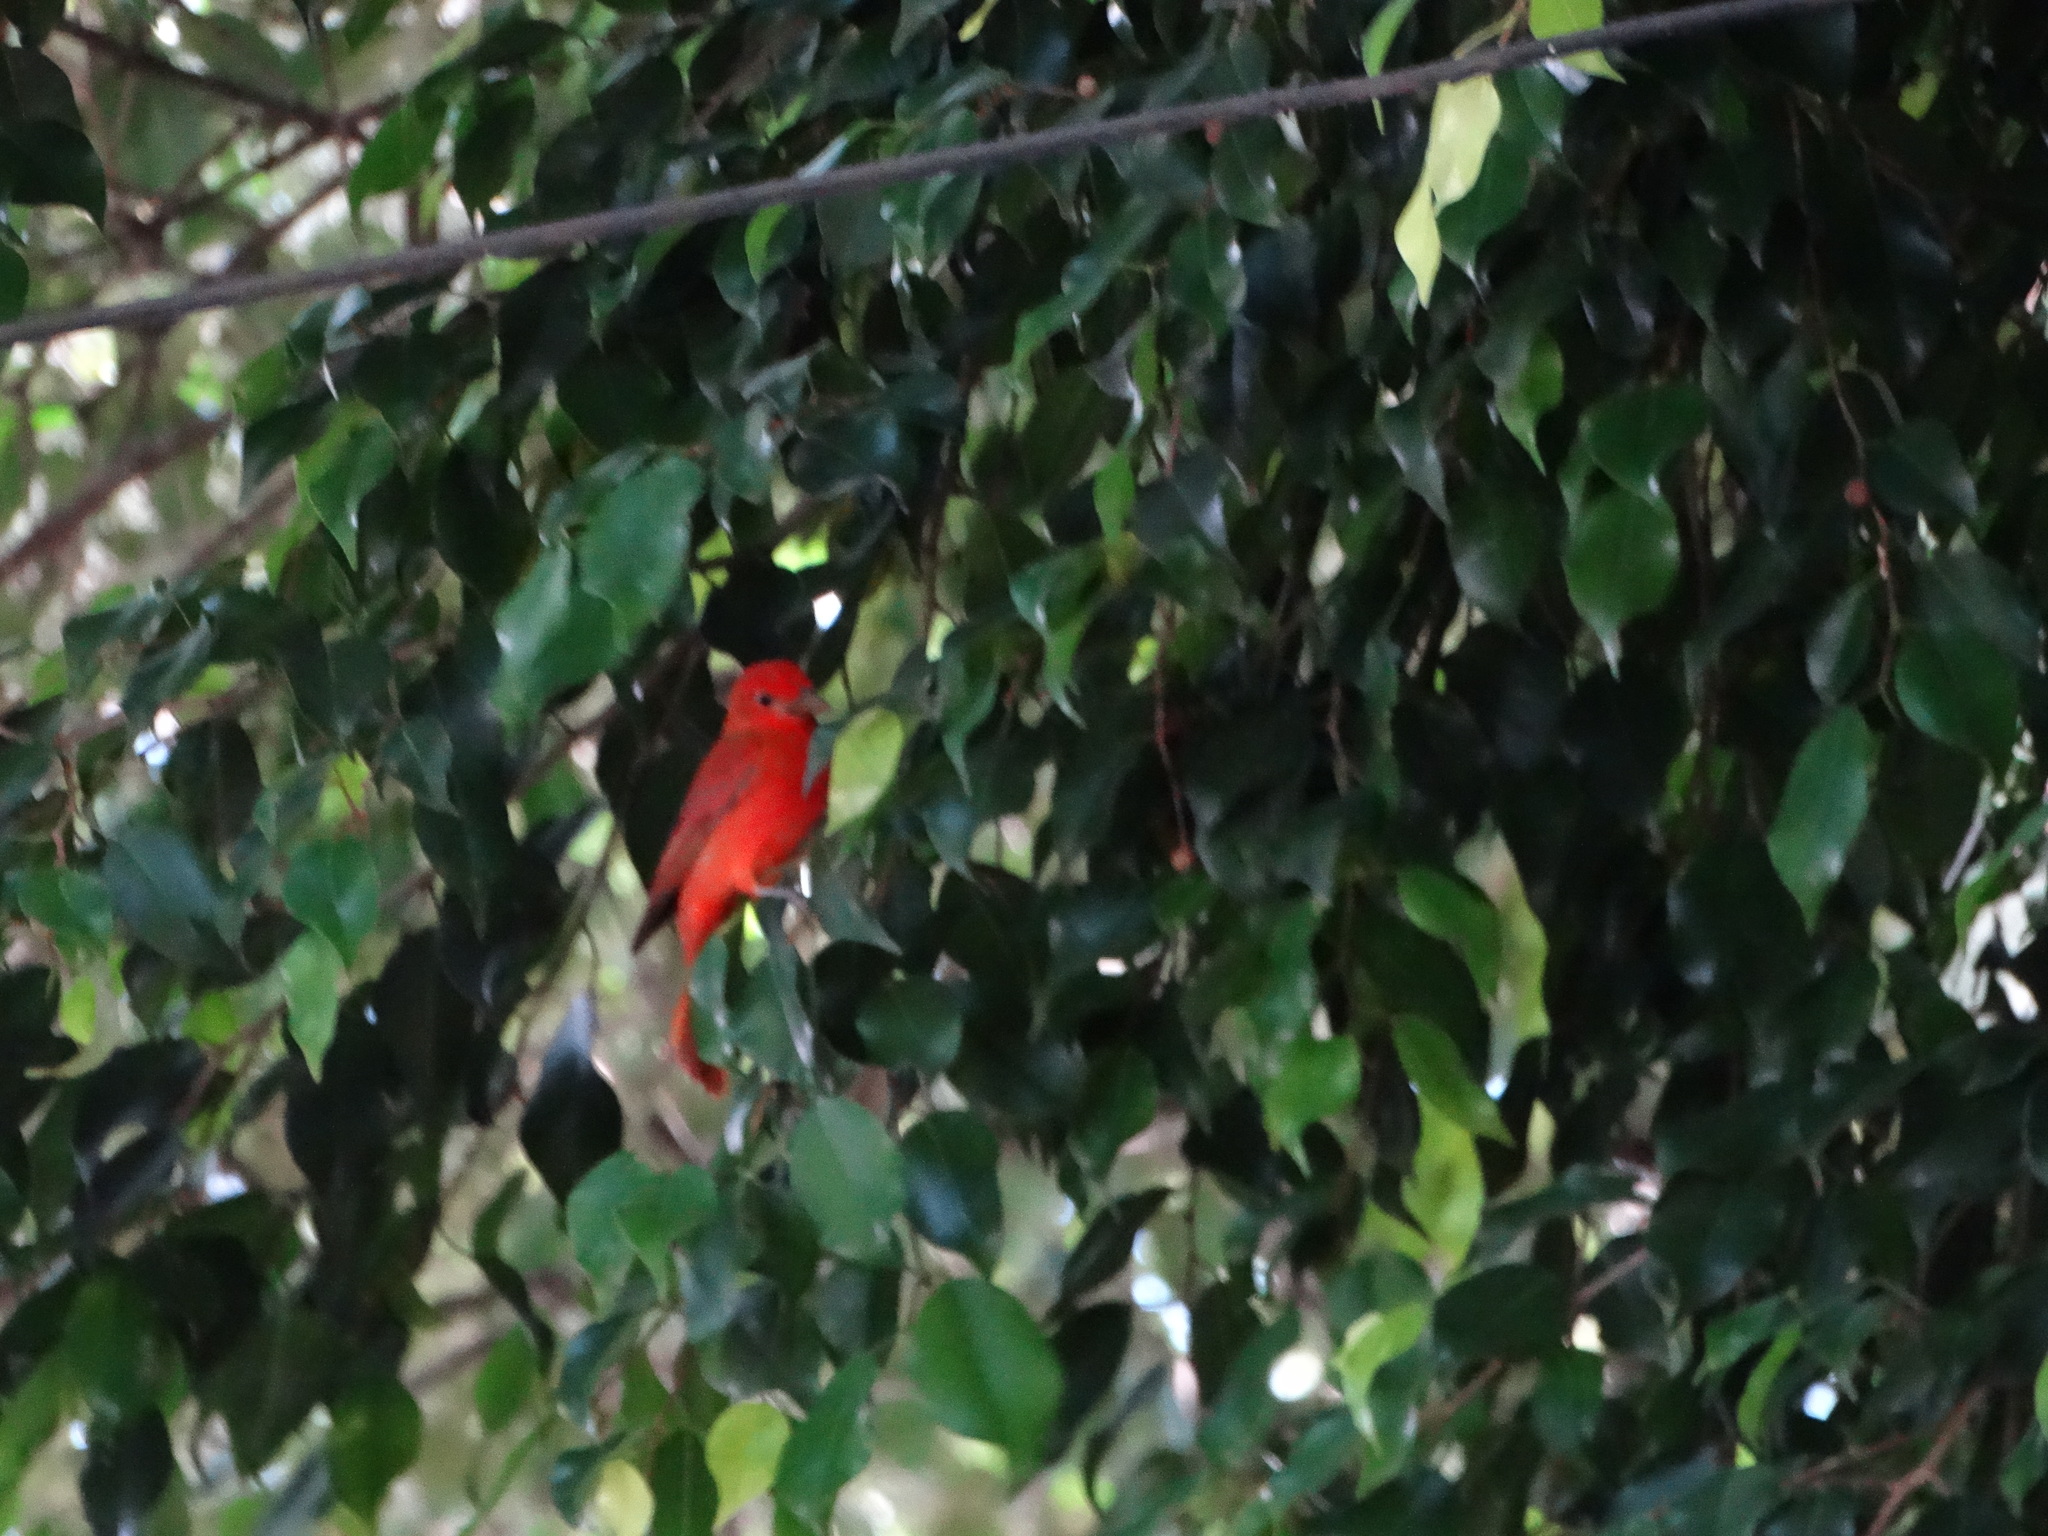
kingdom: Animalia
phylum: Chordata
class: Aves
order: Passeriformes
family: Cardinalidae
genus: Piranga
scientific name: Piranga rubra
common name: Summer tanager
